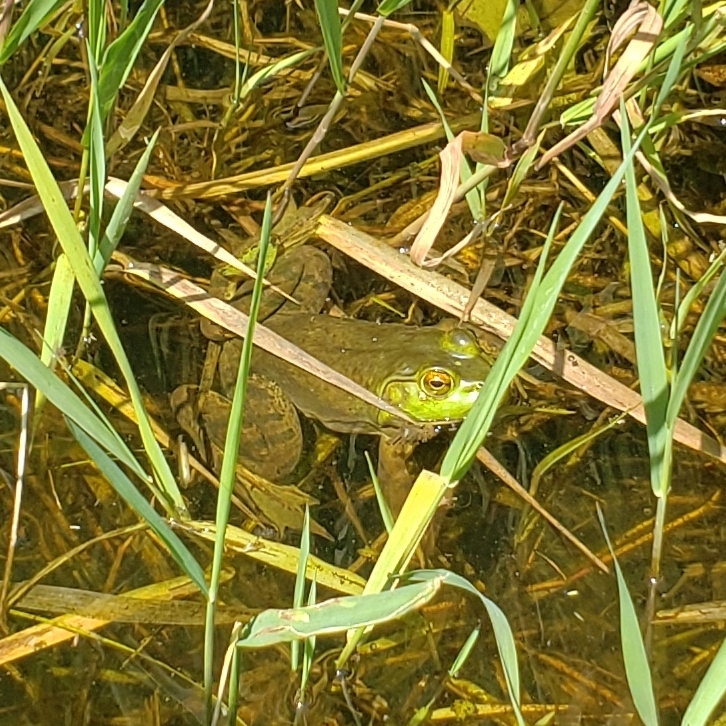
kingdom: Animalia
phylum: Chordata
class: Amphibia
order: Anura
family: Ranidae
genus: Lithobates
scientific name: Lithobates catesbeianus
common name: American bullfrog
